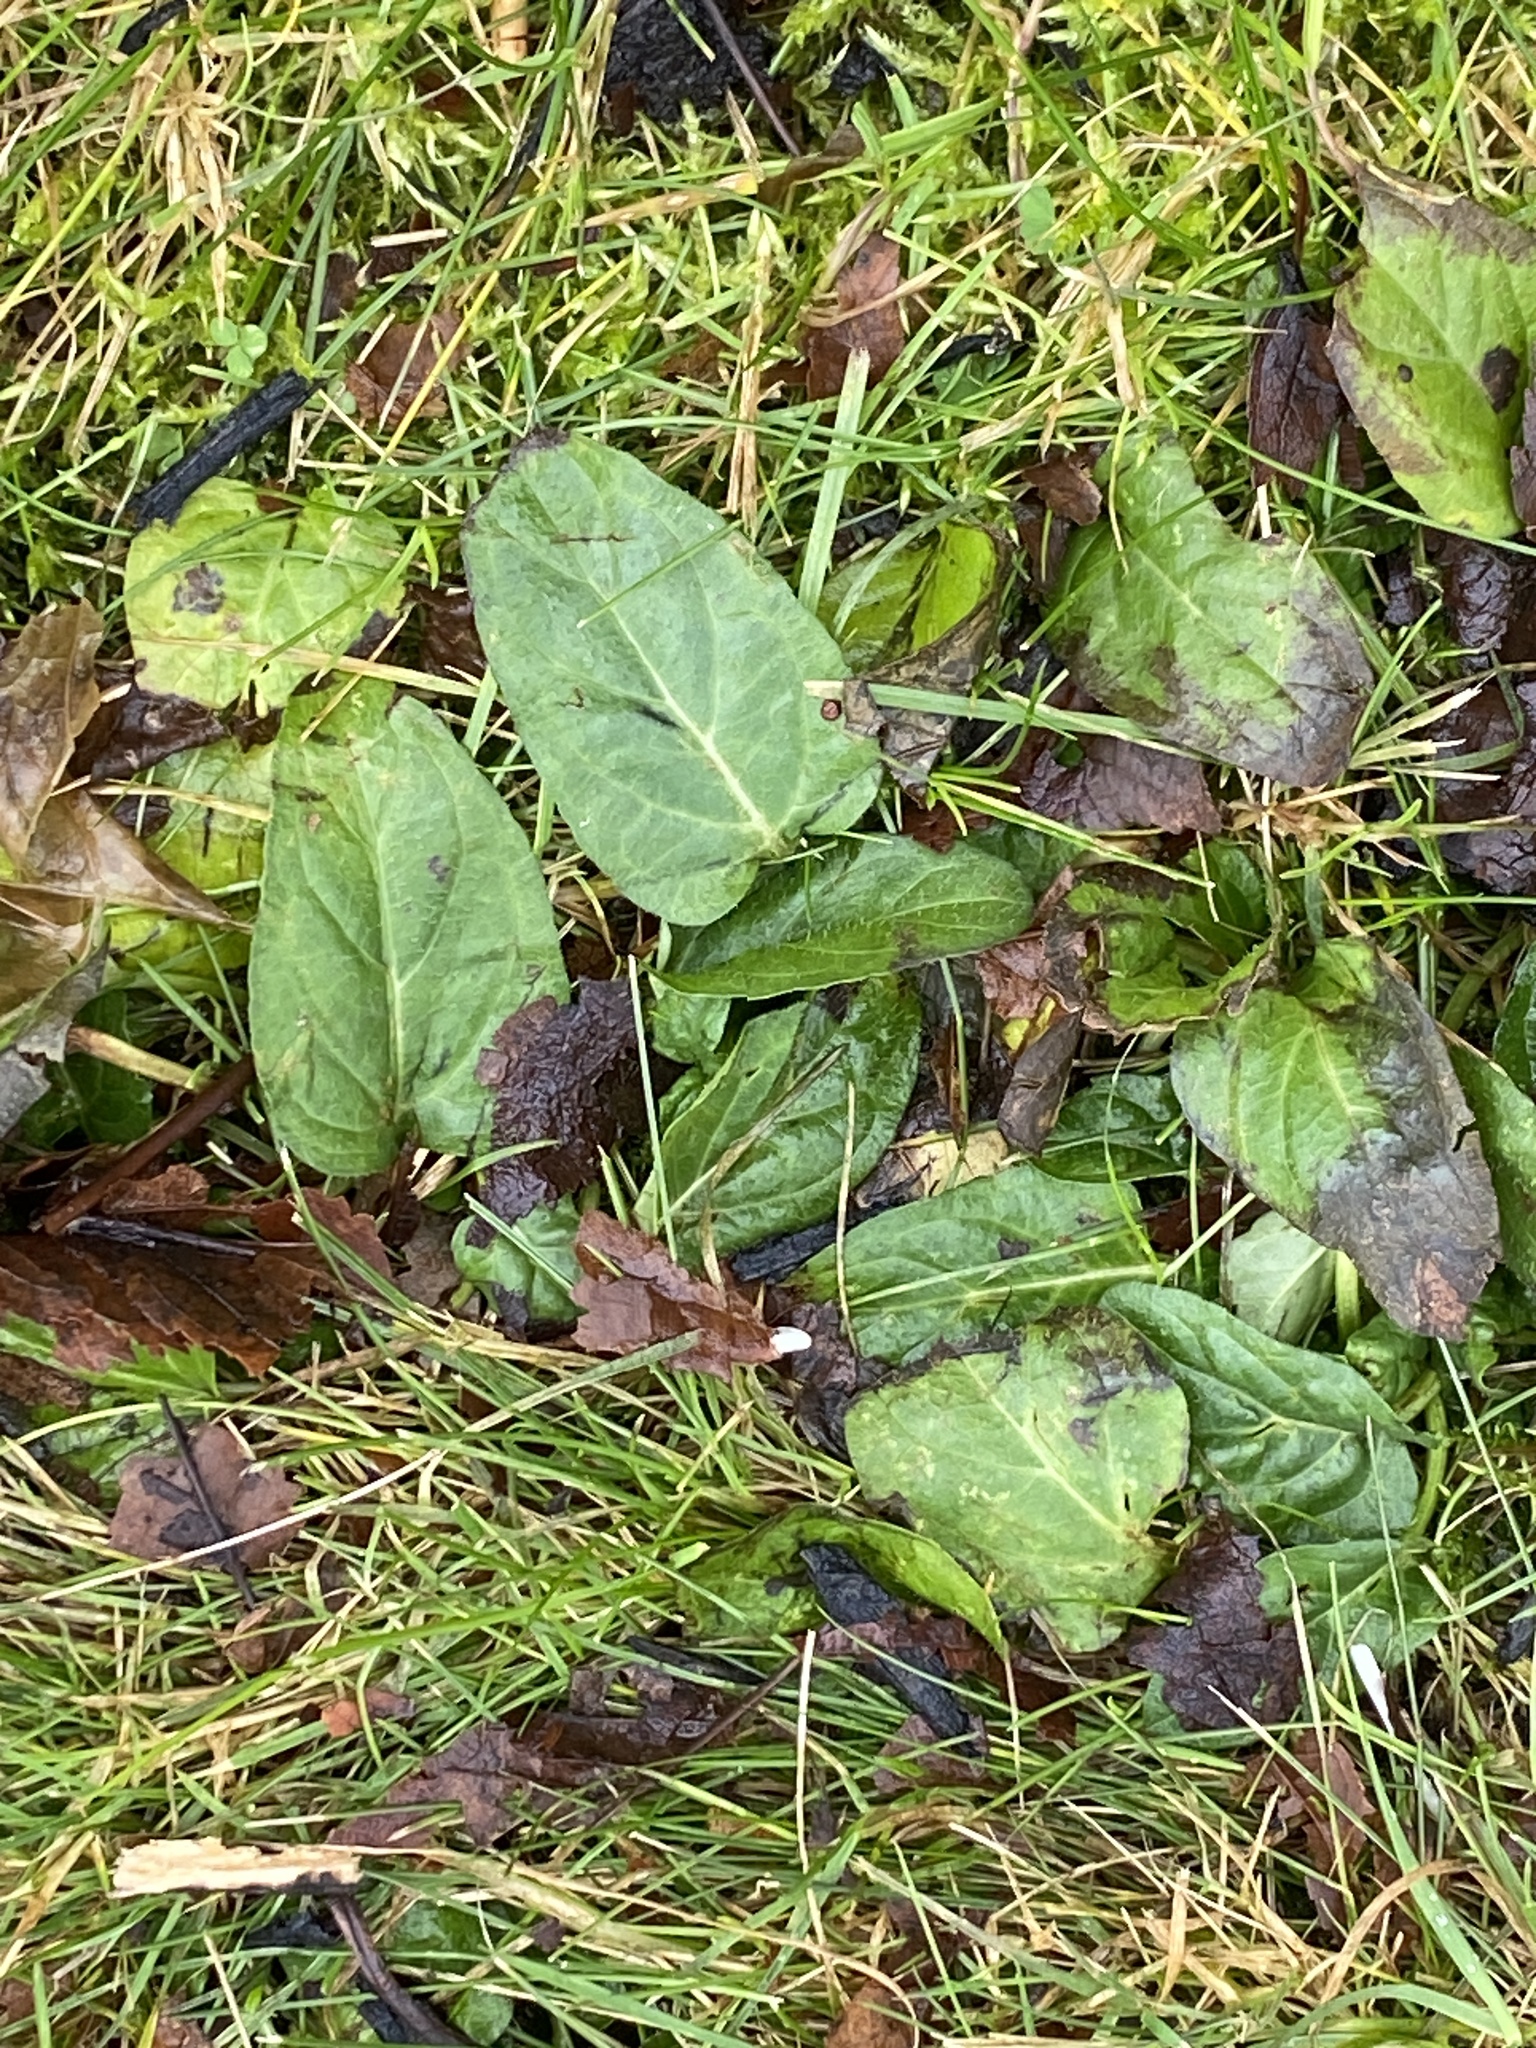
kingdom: Plantae
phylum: Tracheophyta
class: Magnoliopsida
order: Lamiales
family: Lamiaceae
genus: Prunella
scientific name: Prunella vulgaris
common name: Heal-all
